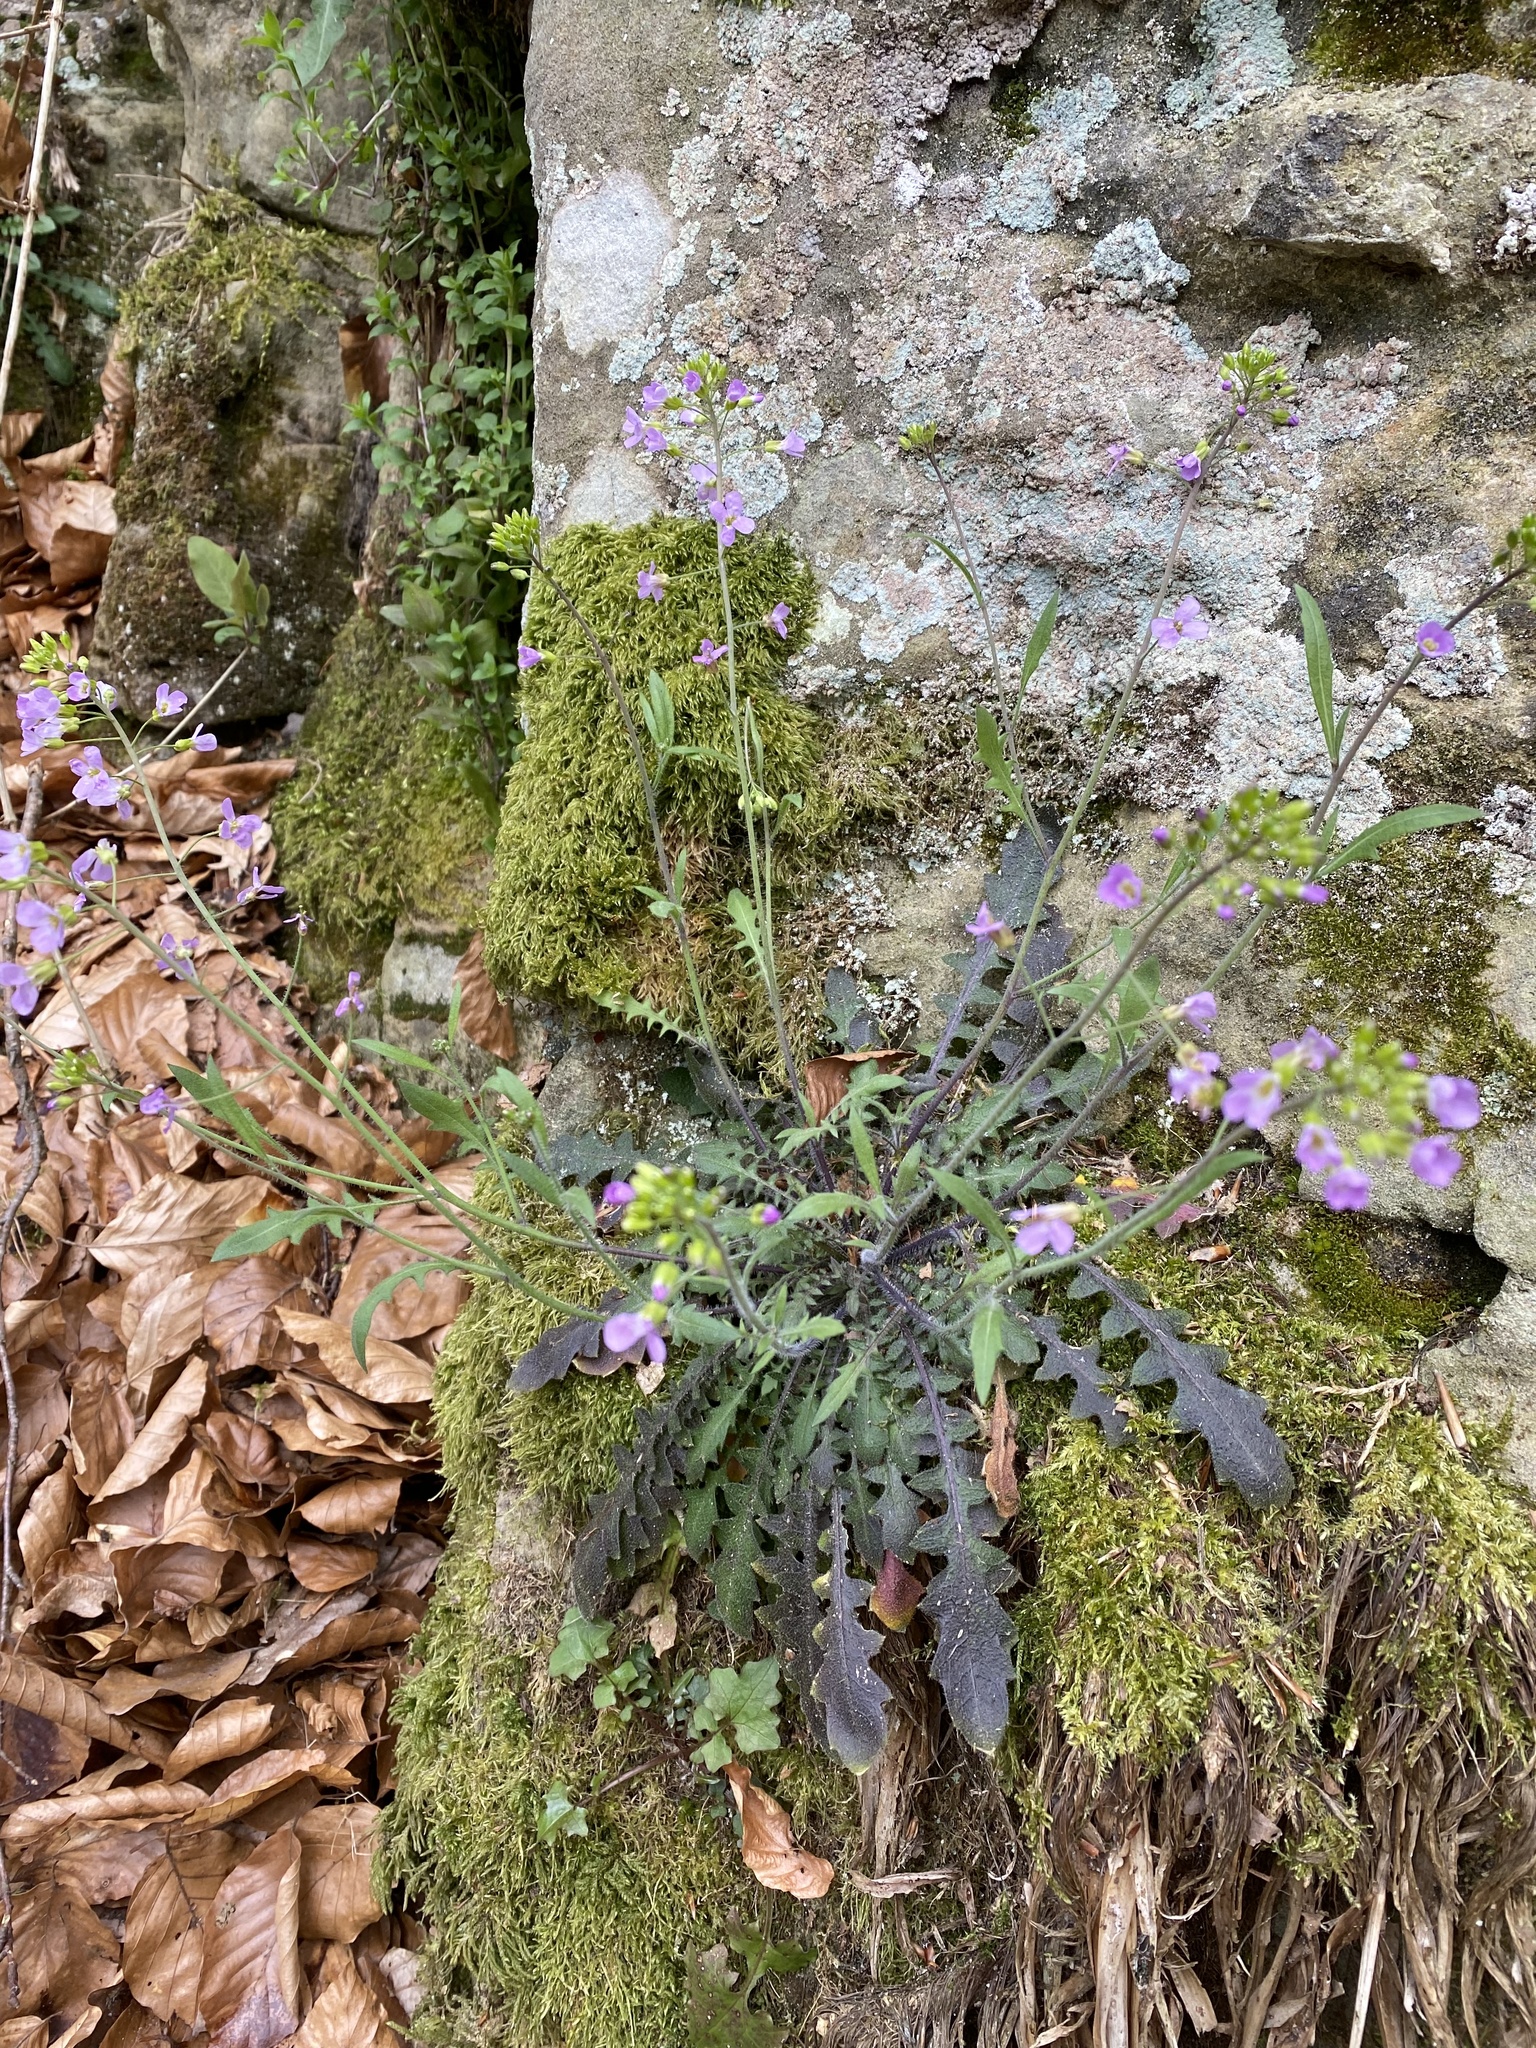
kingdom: Plantae
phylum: Tracheophyta
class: Magnoliopsida
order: Brassicales
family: Brassicaceae
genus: Arabidopsis
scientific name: Arabidopsis arenosa
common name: Sand rock-cress
